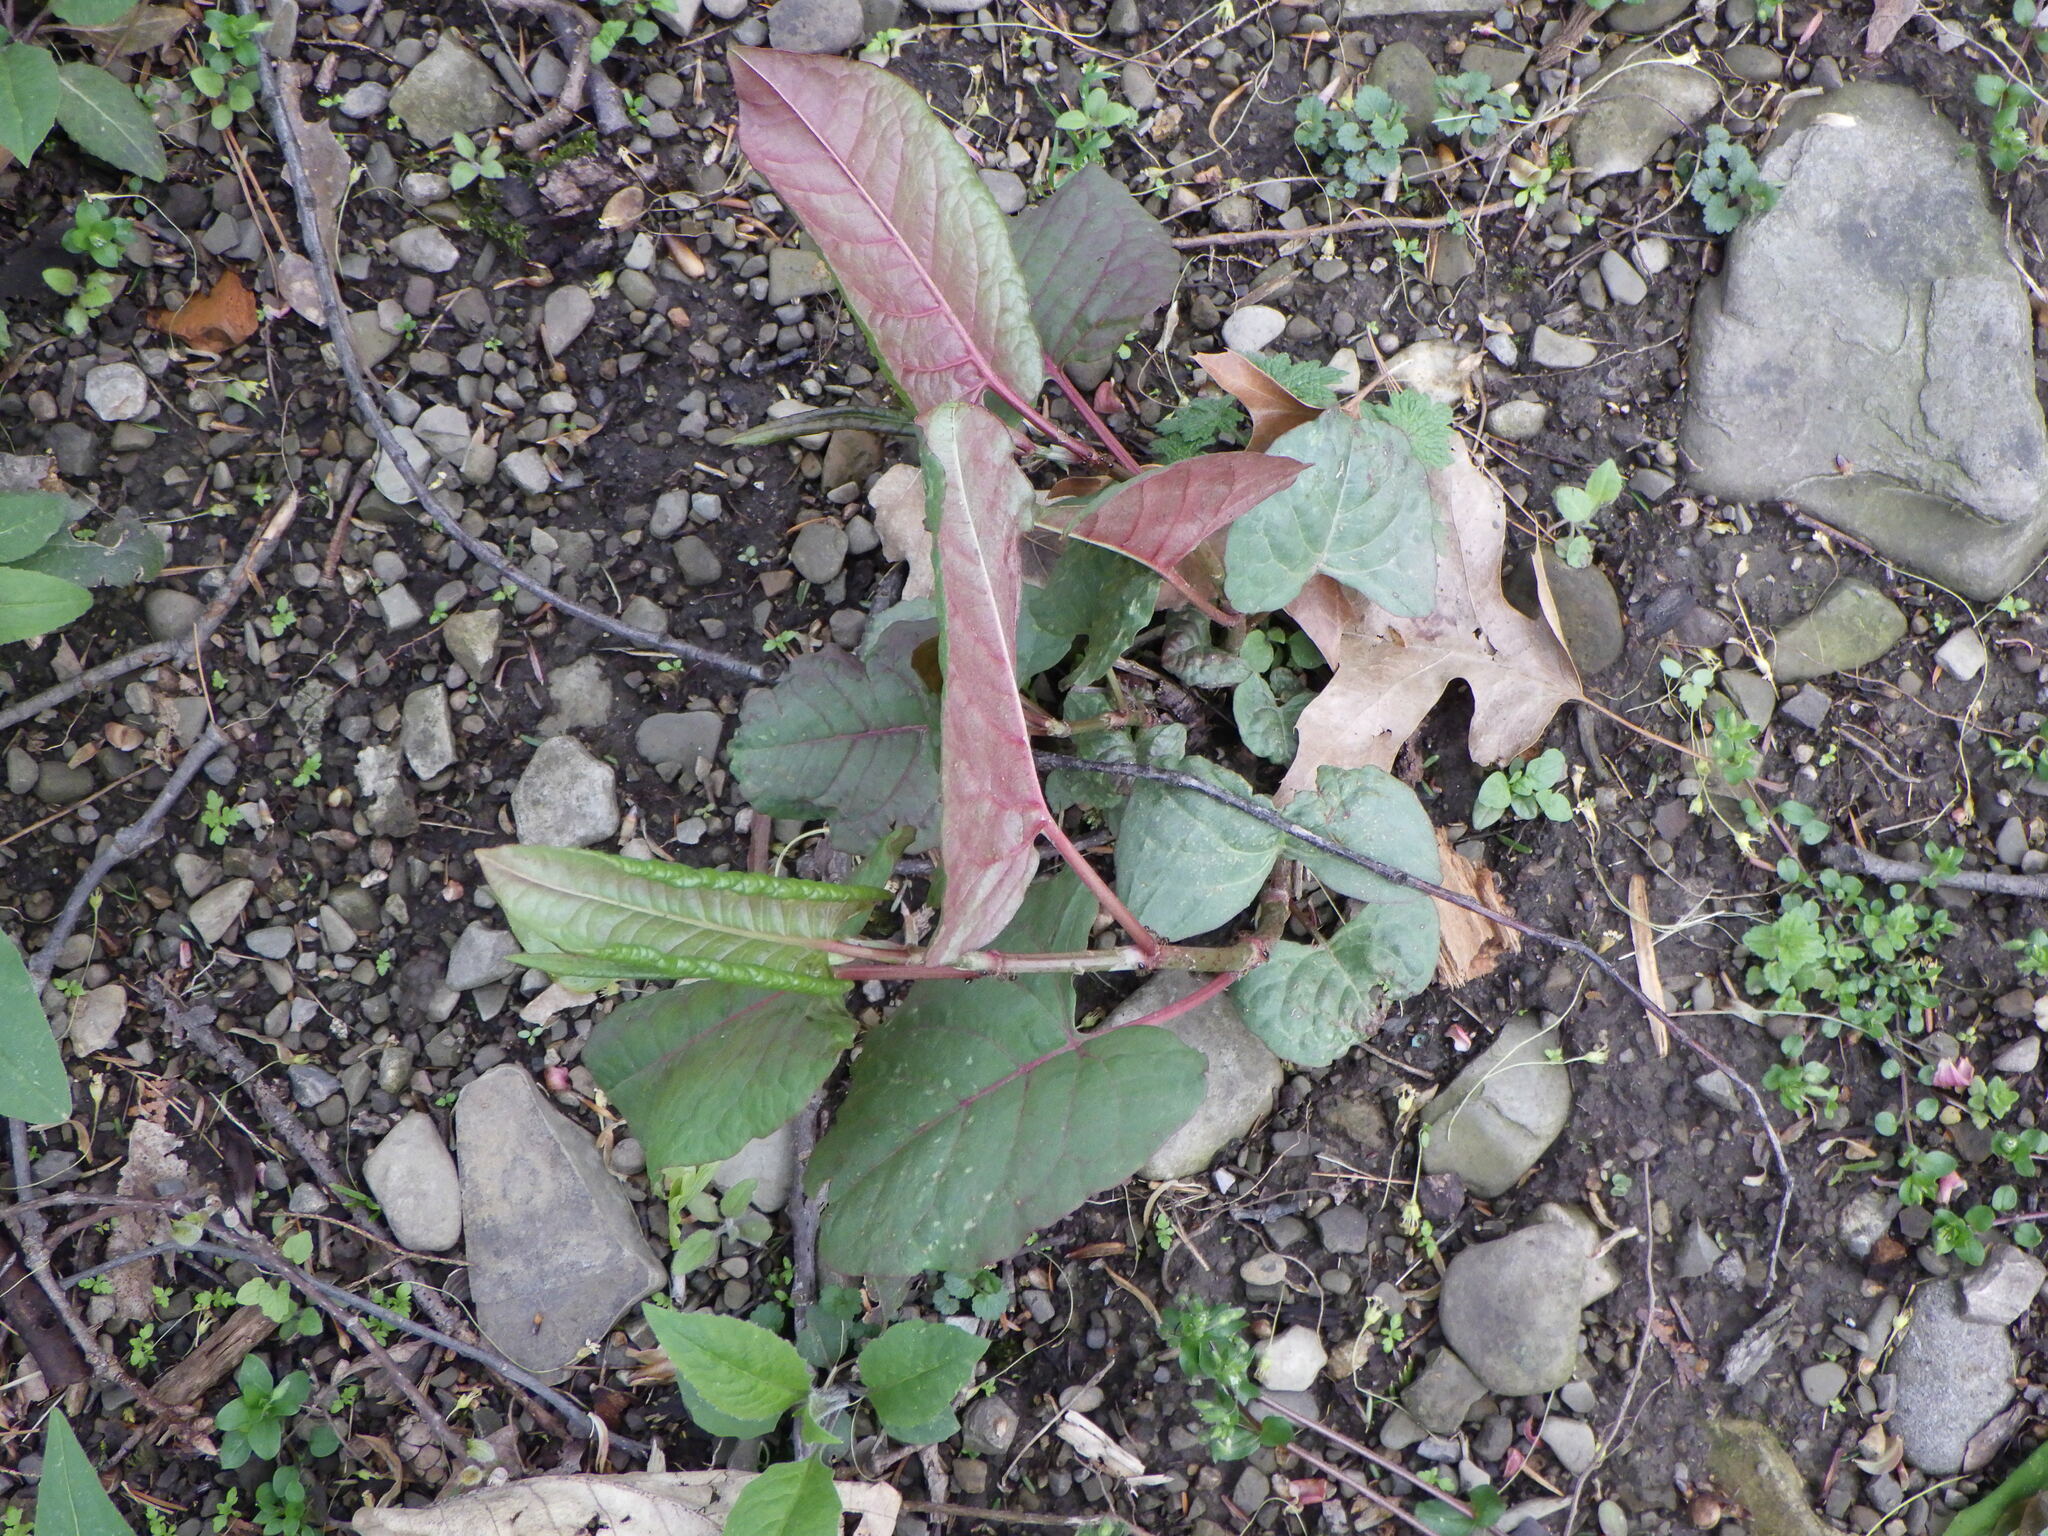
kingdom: Plantae
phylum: Tracheophyta
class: Magnoliopsida
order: Caryophyllales
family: Polygonaceae
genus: Reynoutria
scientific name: Reynoutria japonica
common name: Japanese knotweed
